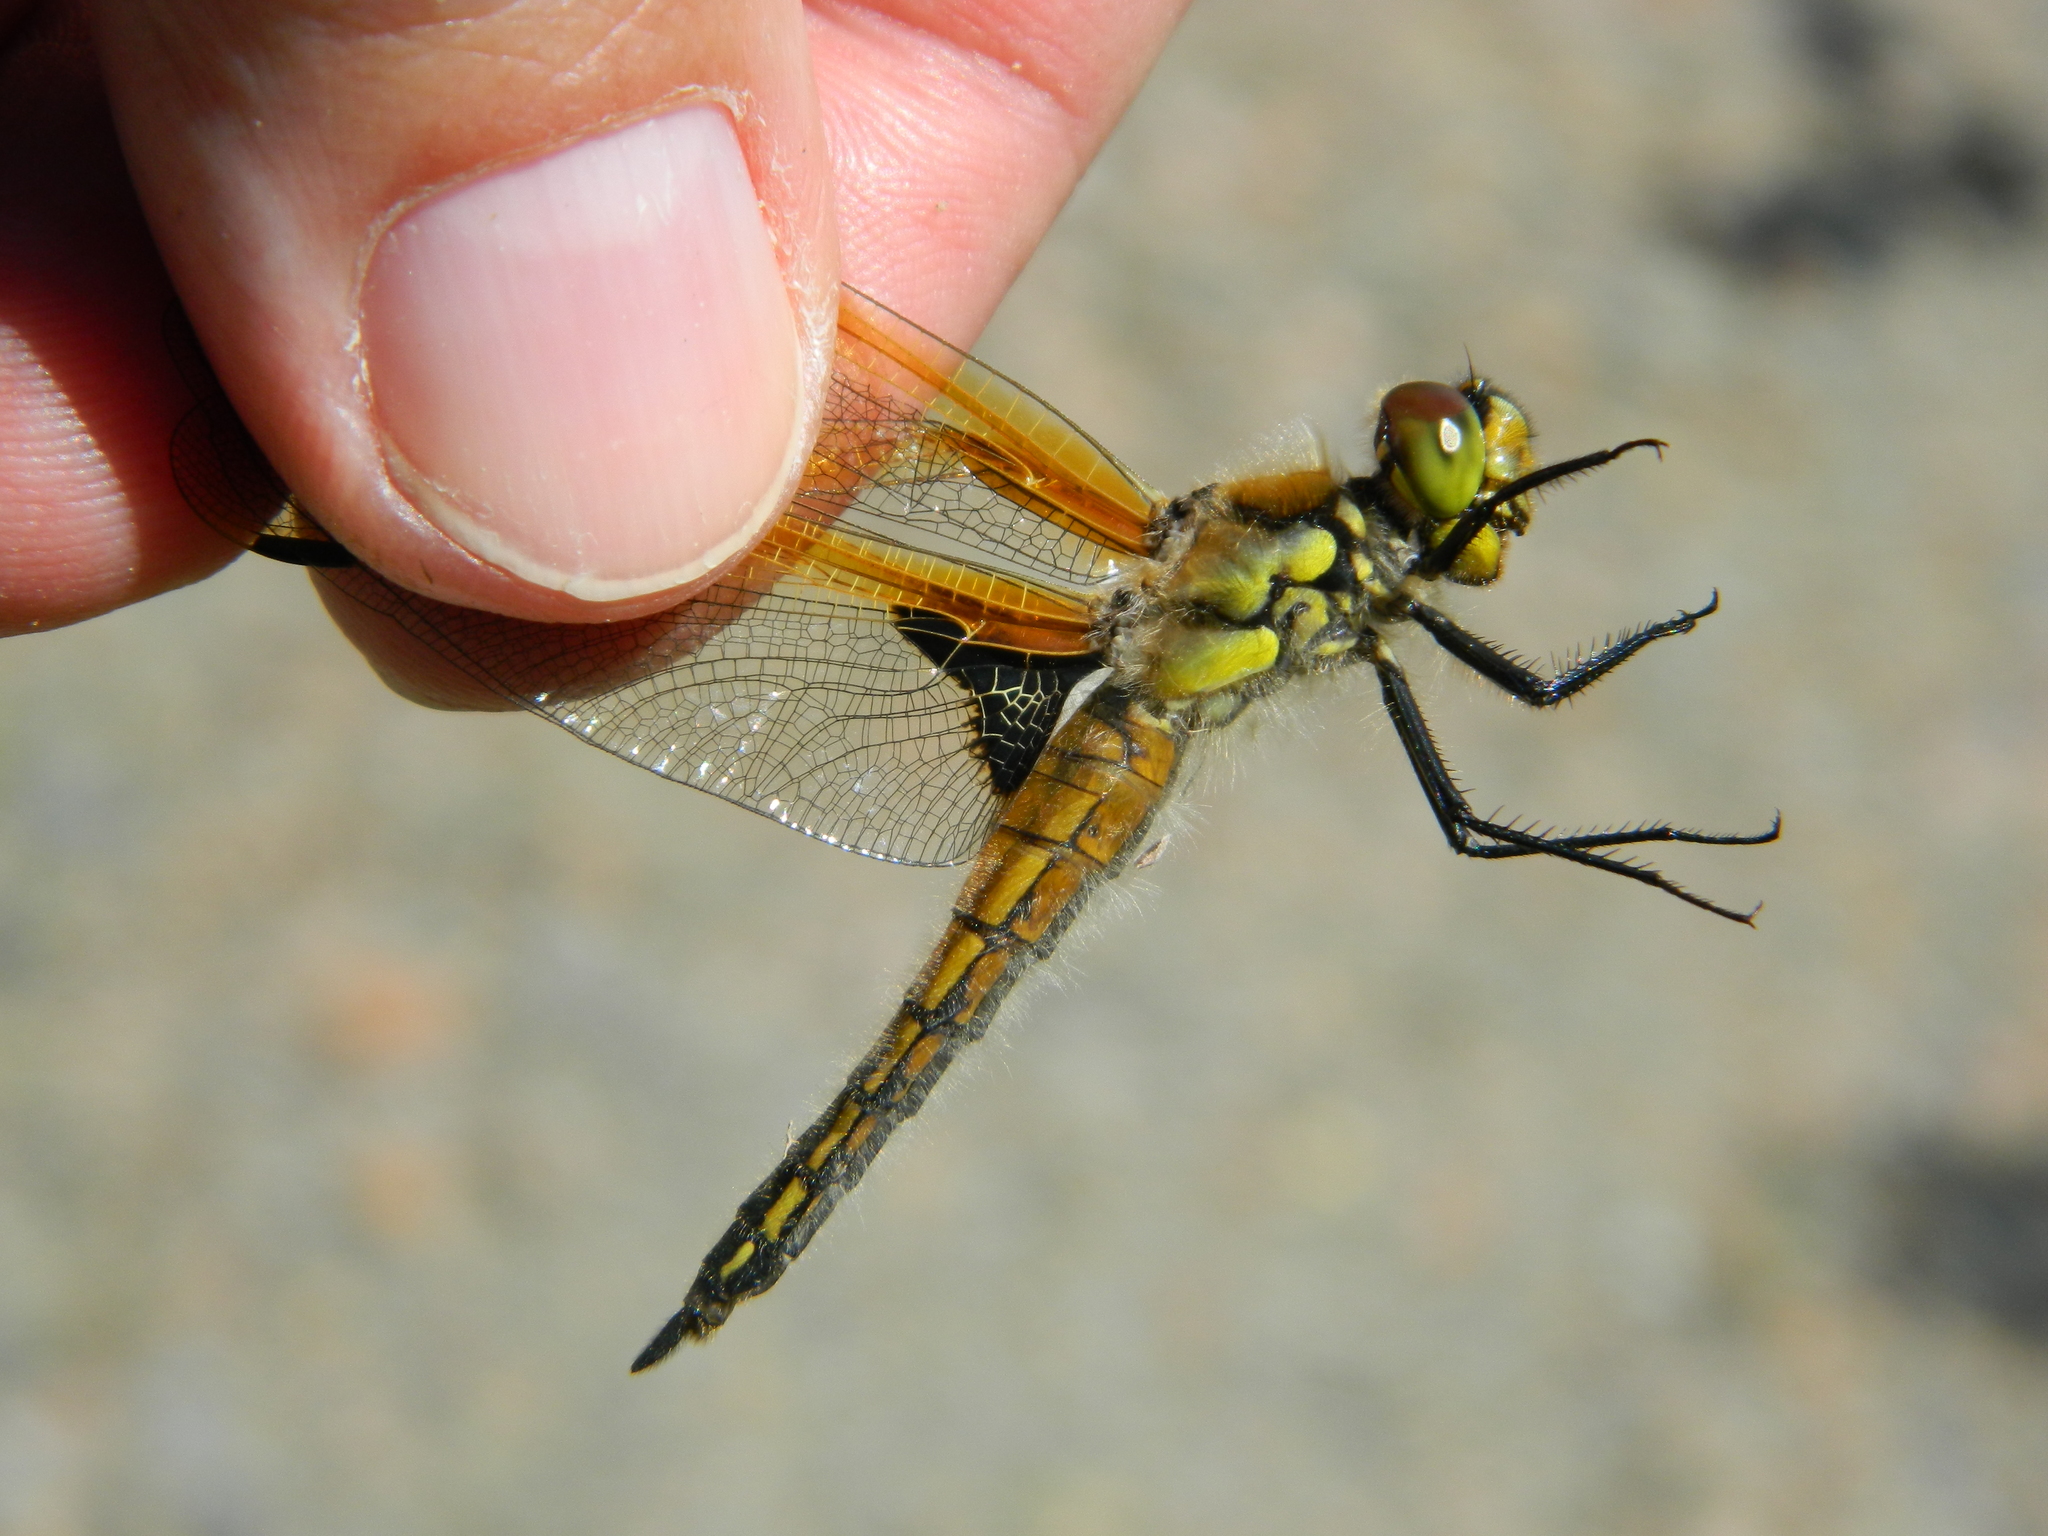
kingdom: Animalia
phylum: Arthropoda
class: Insecta
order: Odonata
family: Libellulidae
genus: Libellula
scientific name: Libellula quadrimaculata
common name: Four-spotted chaser
